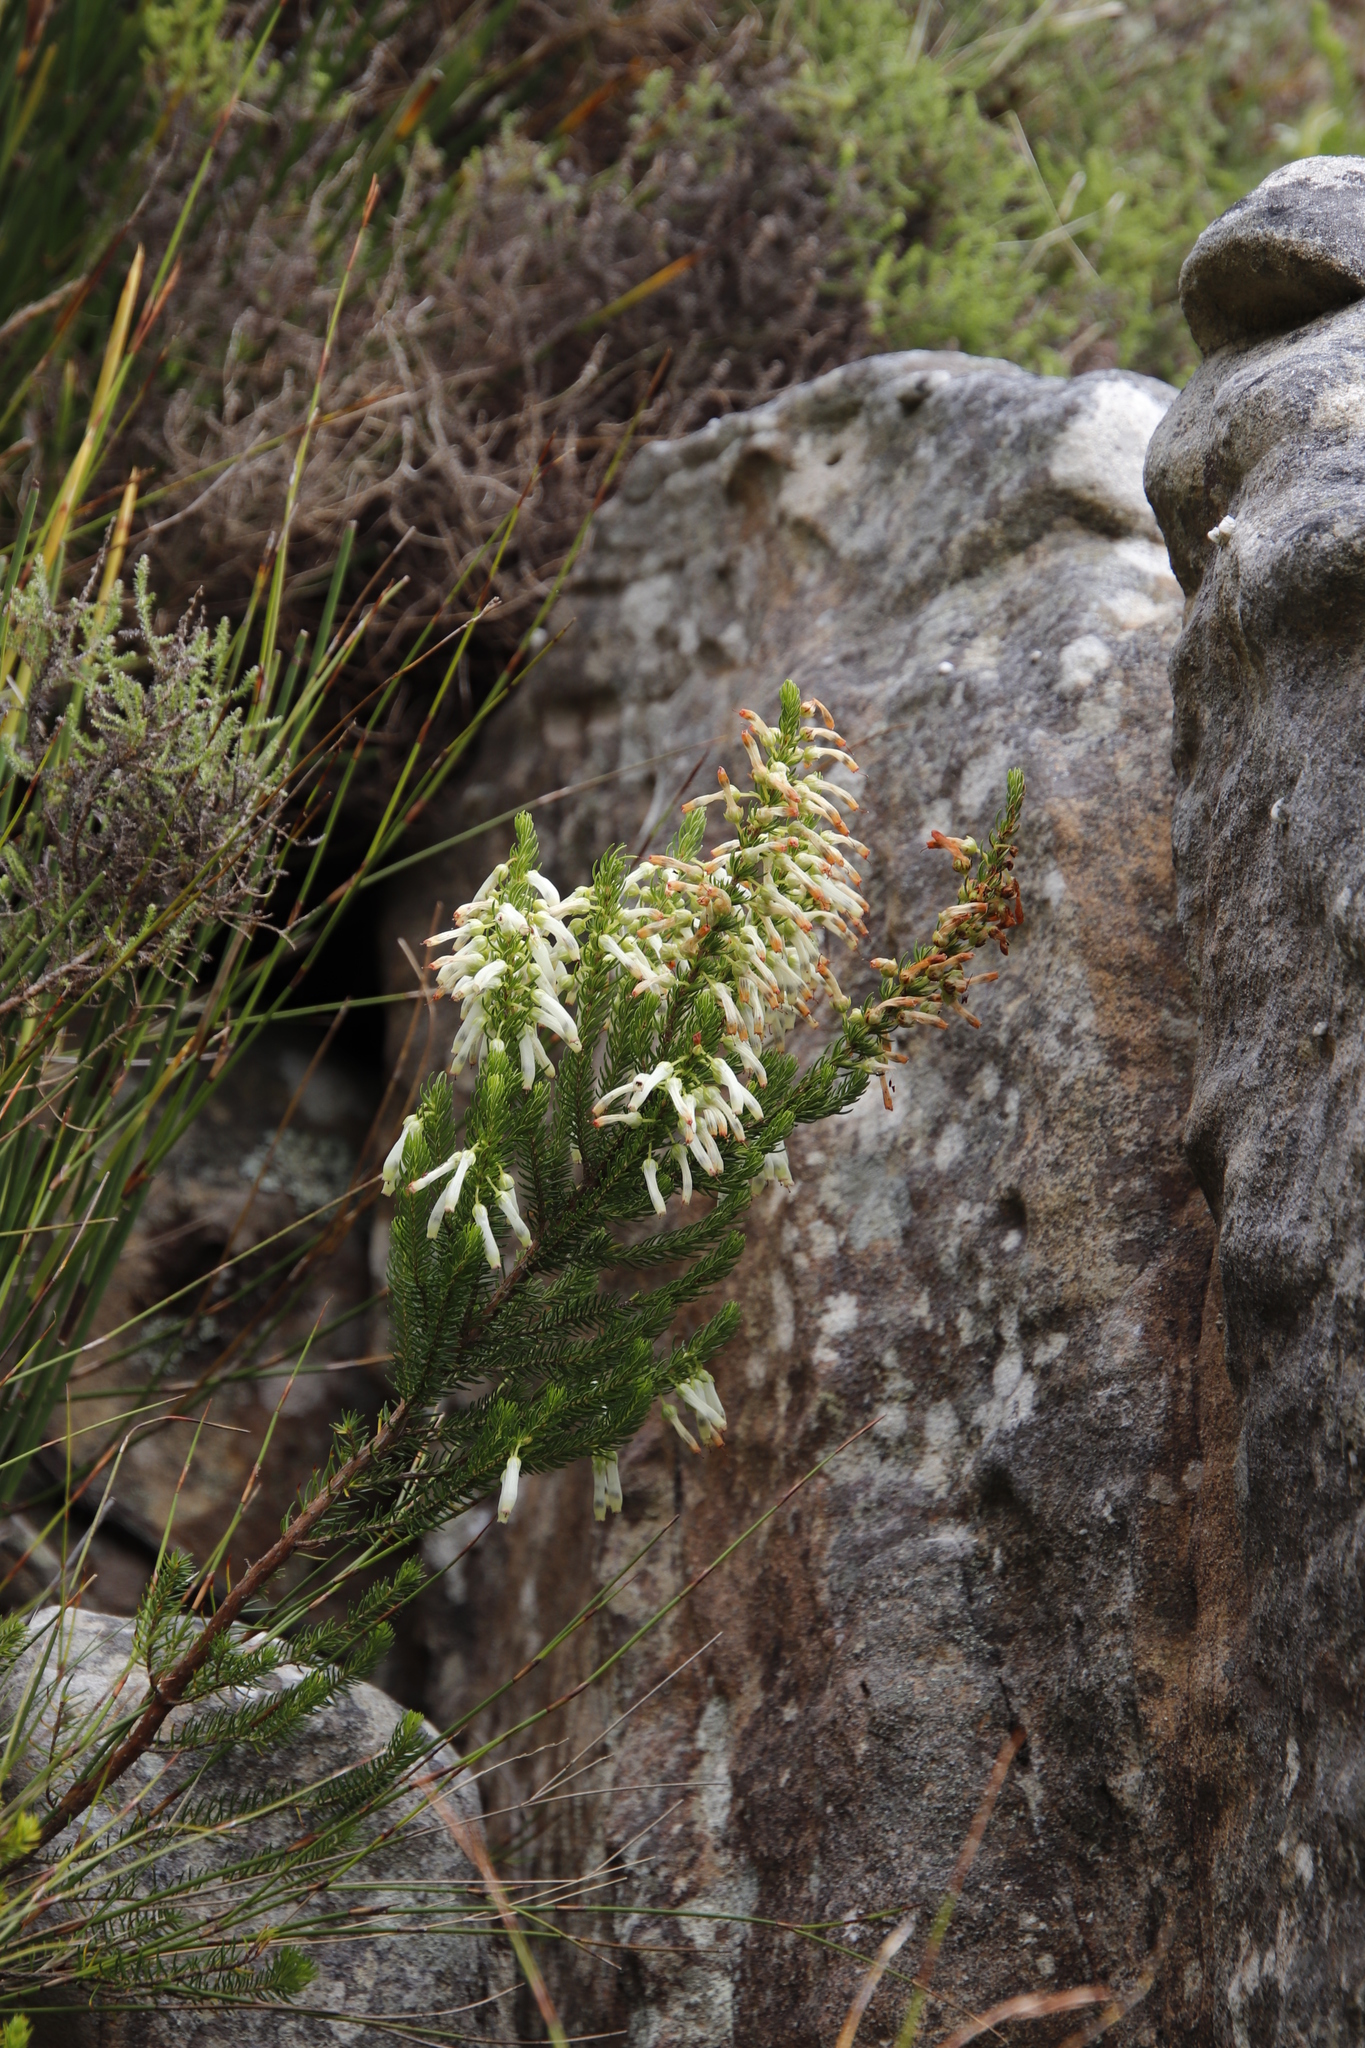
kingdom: Plantae
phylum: Tracheophyta
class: Magnoliopsida
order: Ericales
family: Ericaceae
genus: Erica
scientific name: Erica mammosa
